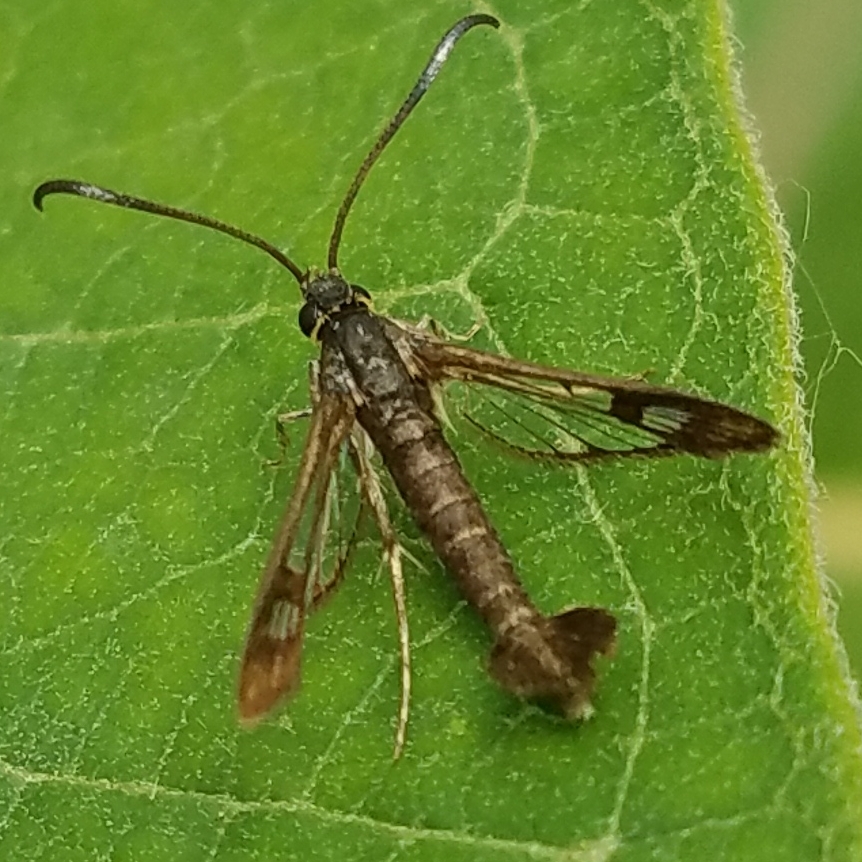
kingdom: Animalia
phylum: Arthropoda
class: Insecta
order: Lepidoptera
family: Sesiidae
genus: Carmenta
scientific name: Carmenta ithacae
